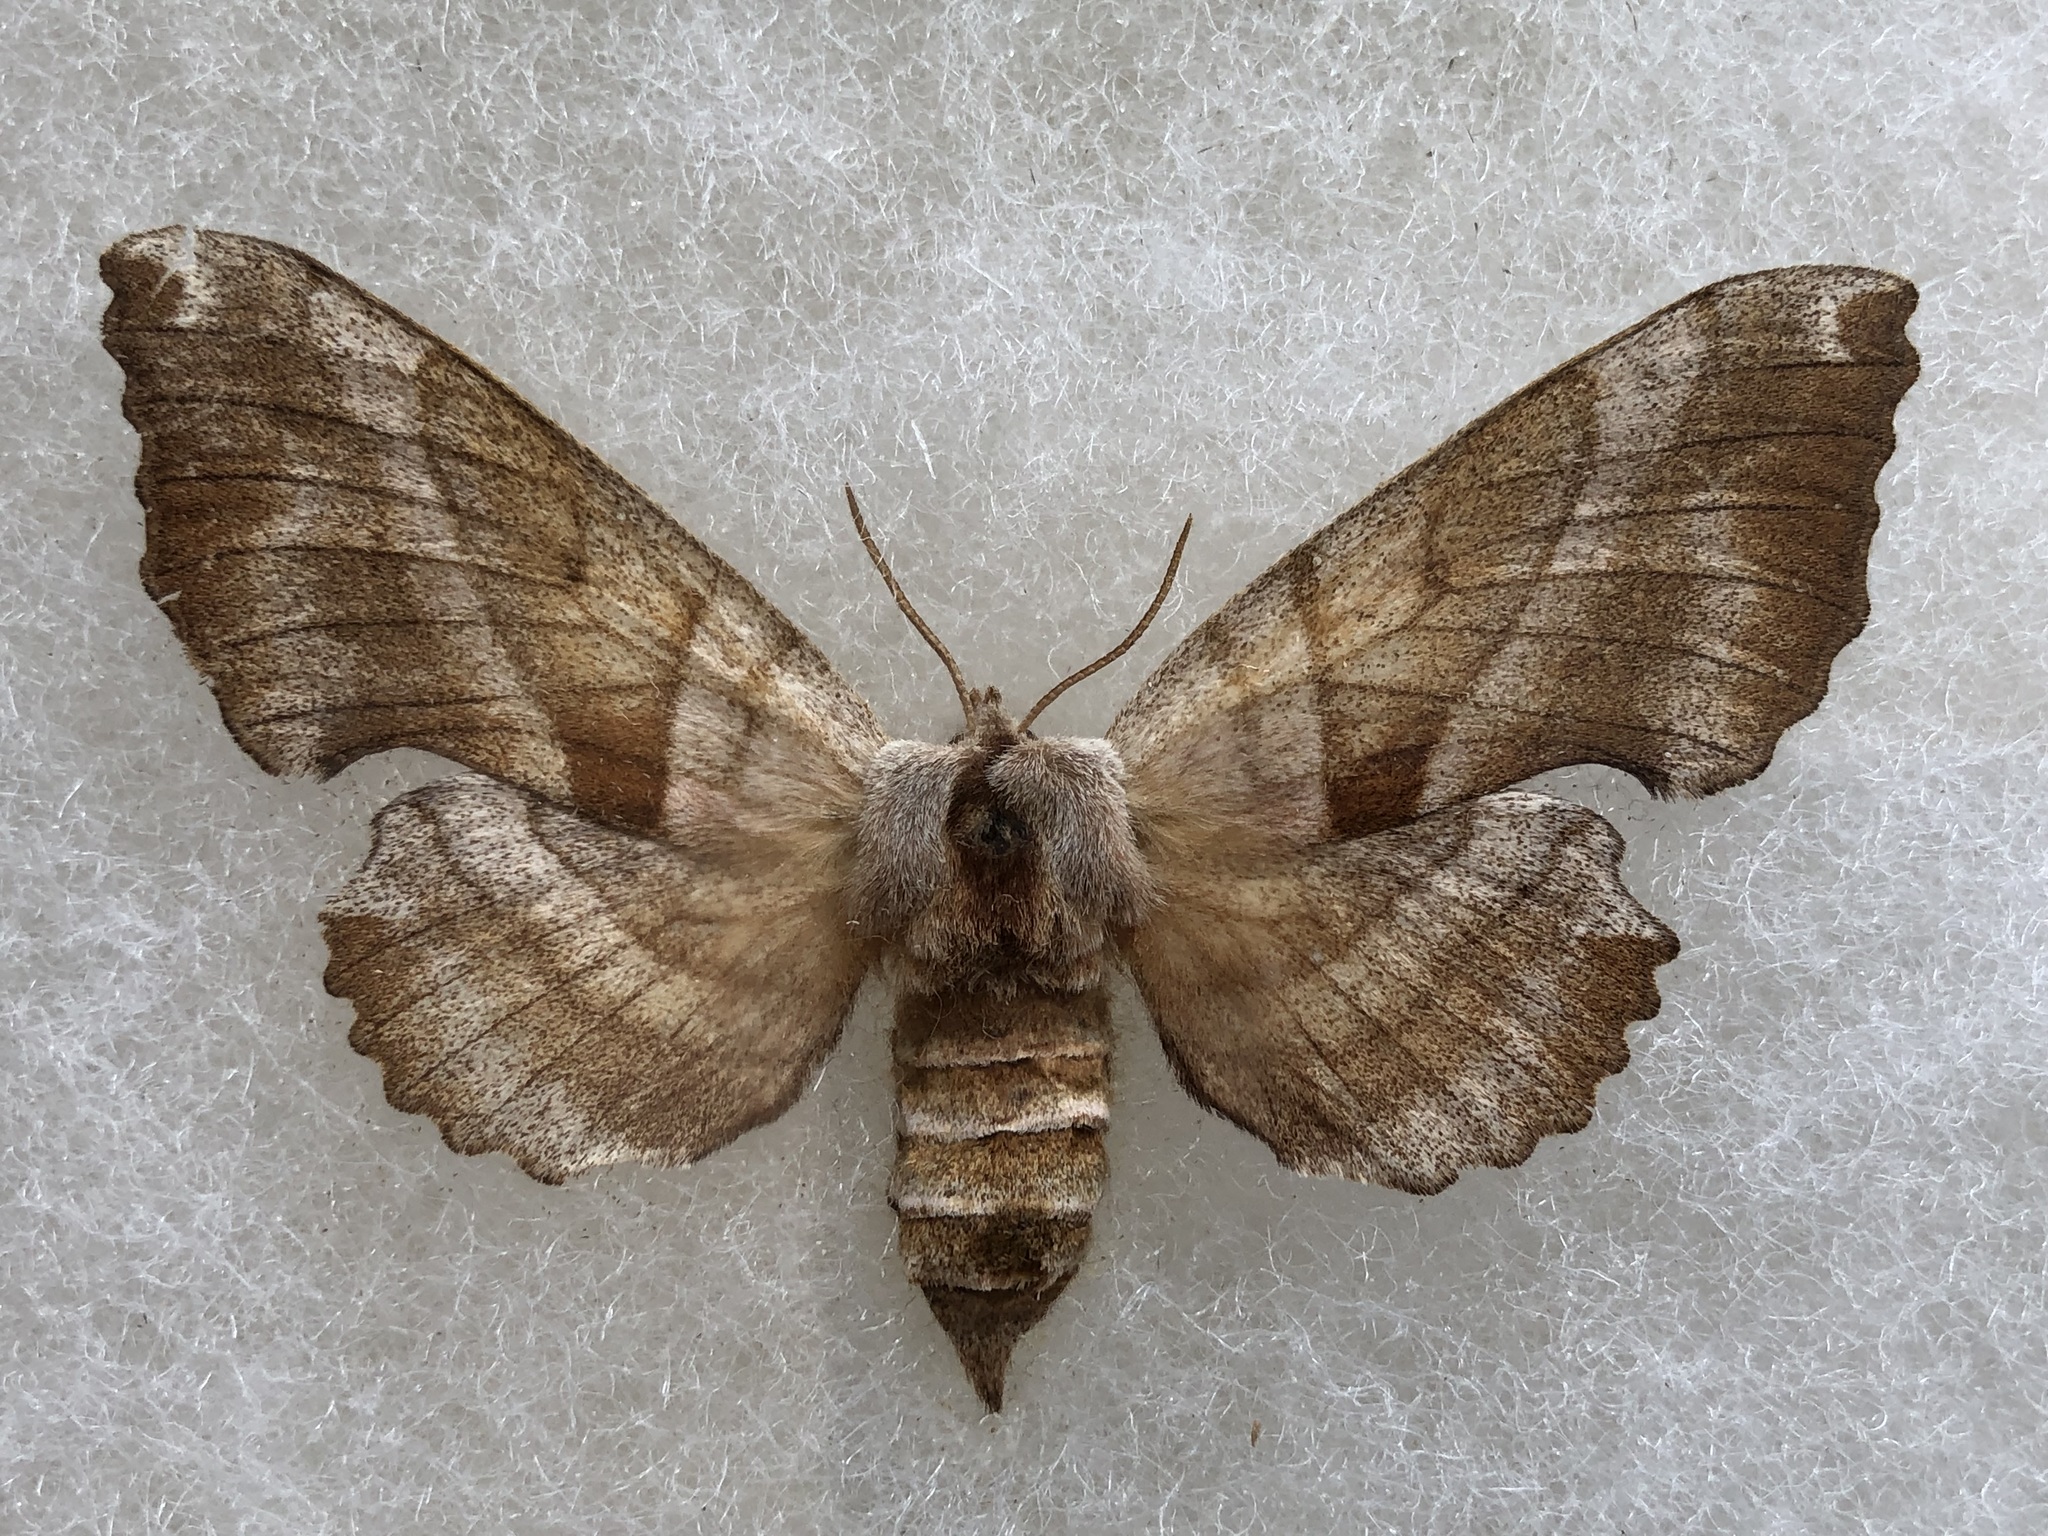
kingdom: Animalia
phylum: Arthropoda
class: Insecta
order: Lepidoptera
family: Sphingidae
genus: Amorpha
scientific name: Amorpha juglandis
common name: Walnut sphinx
